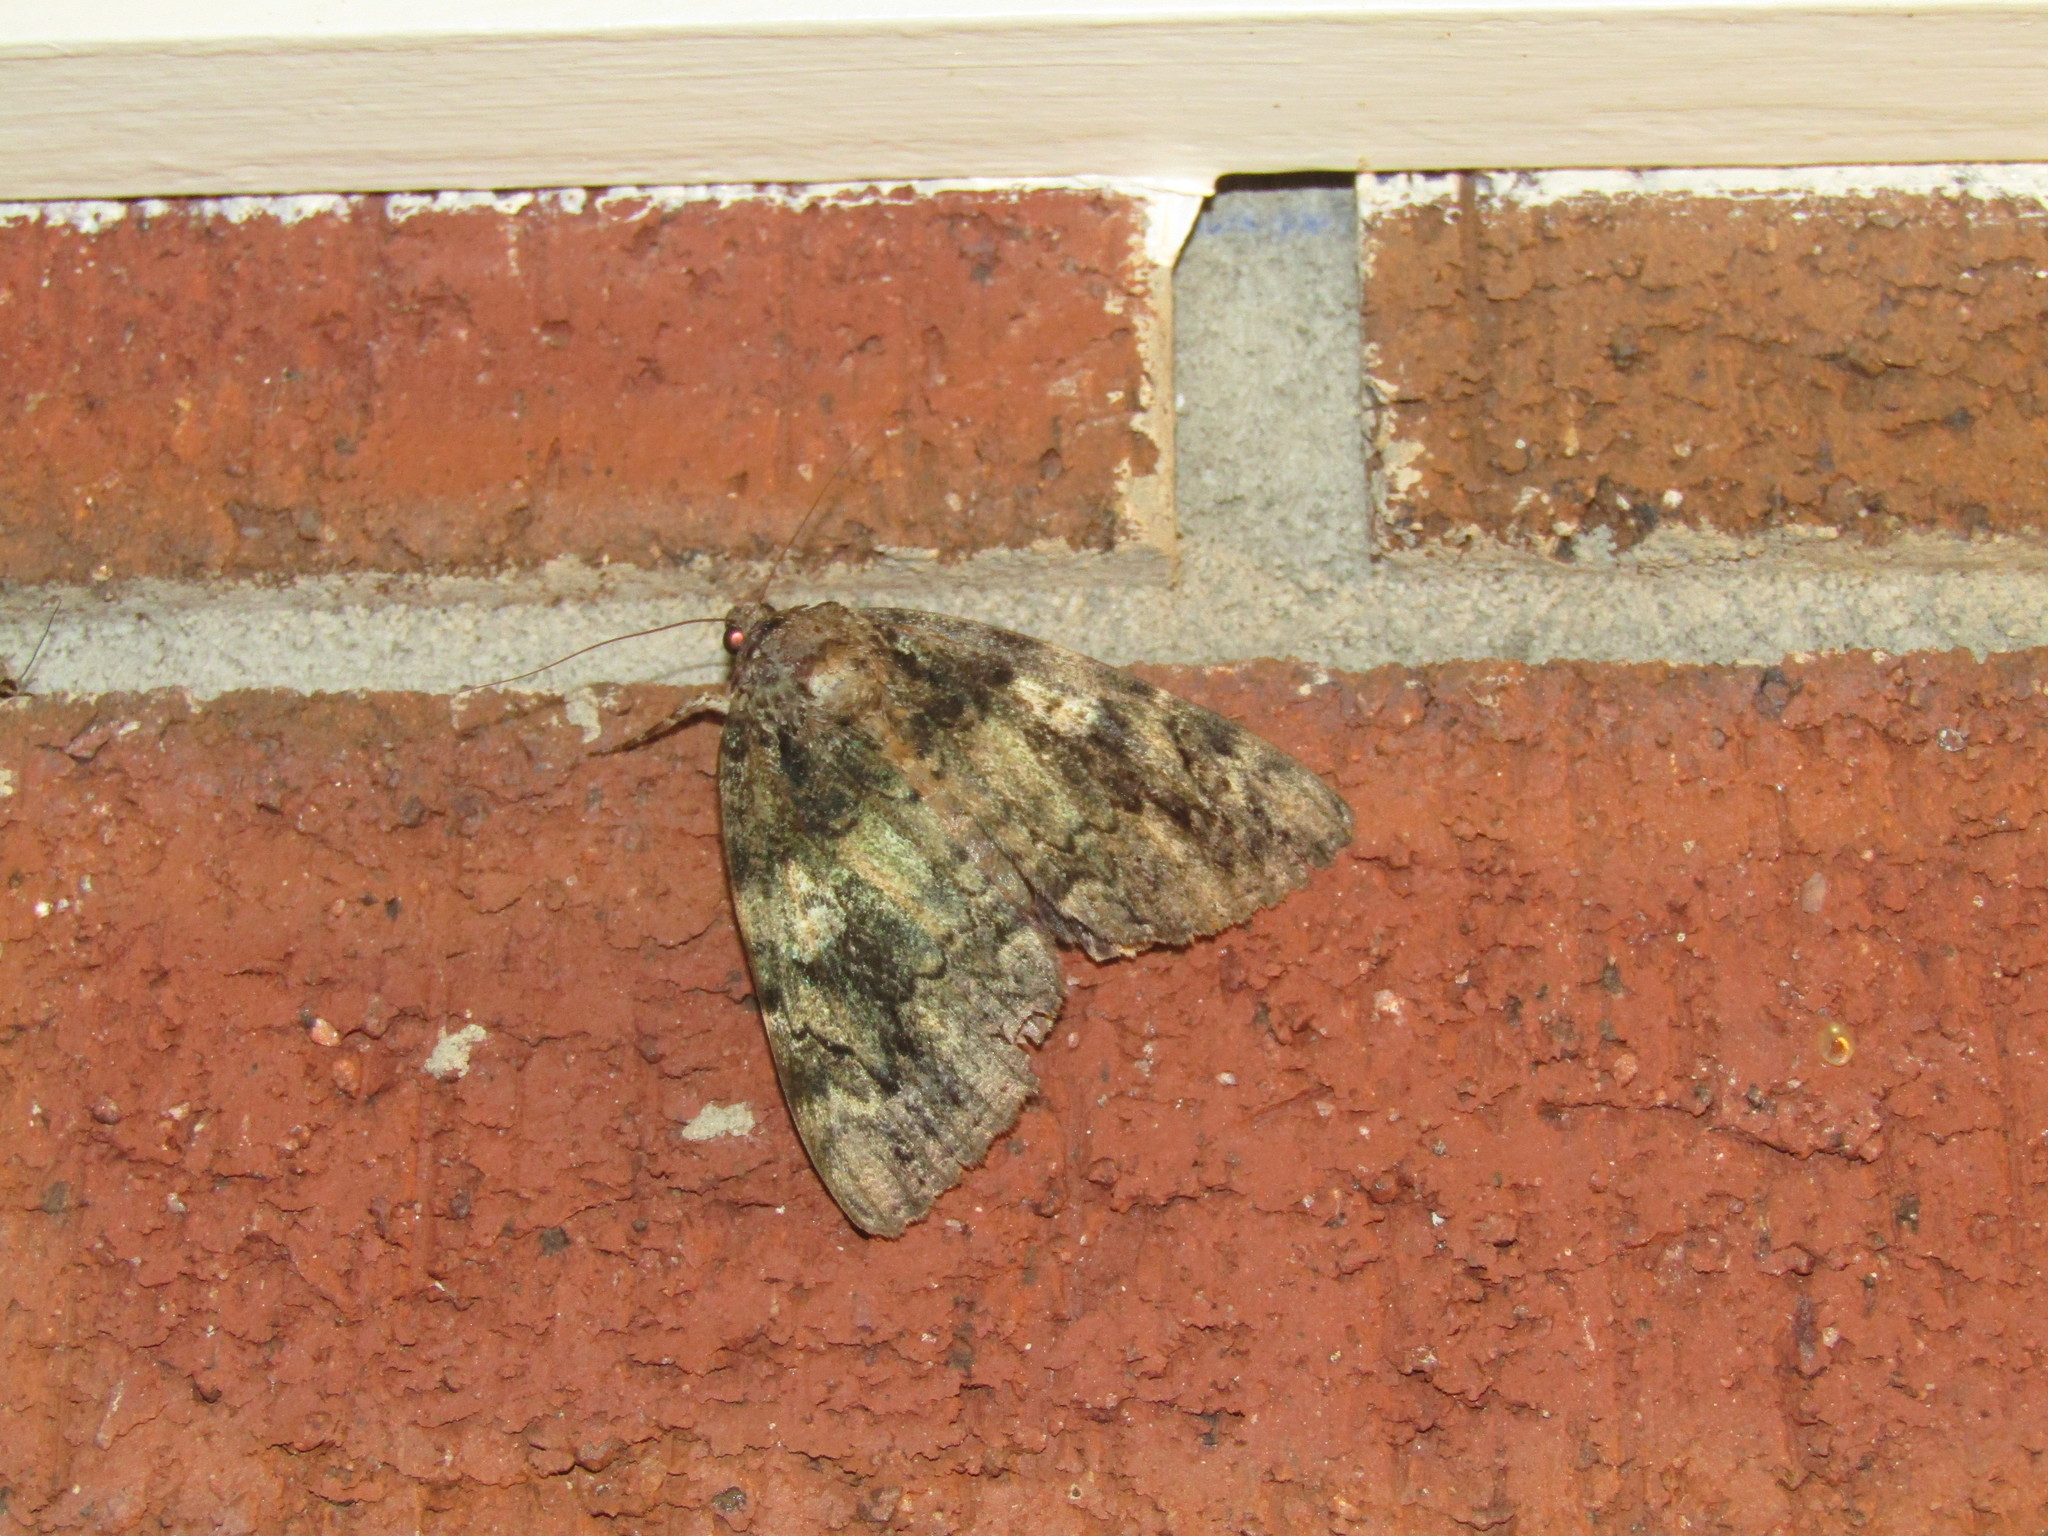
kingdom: Animalia
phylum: Arthropoda
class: Insecta
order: Lepidoptera
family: Erebidae
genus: Catocala
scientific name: Catocala ilia
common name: Ilia underwing
